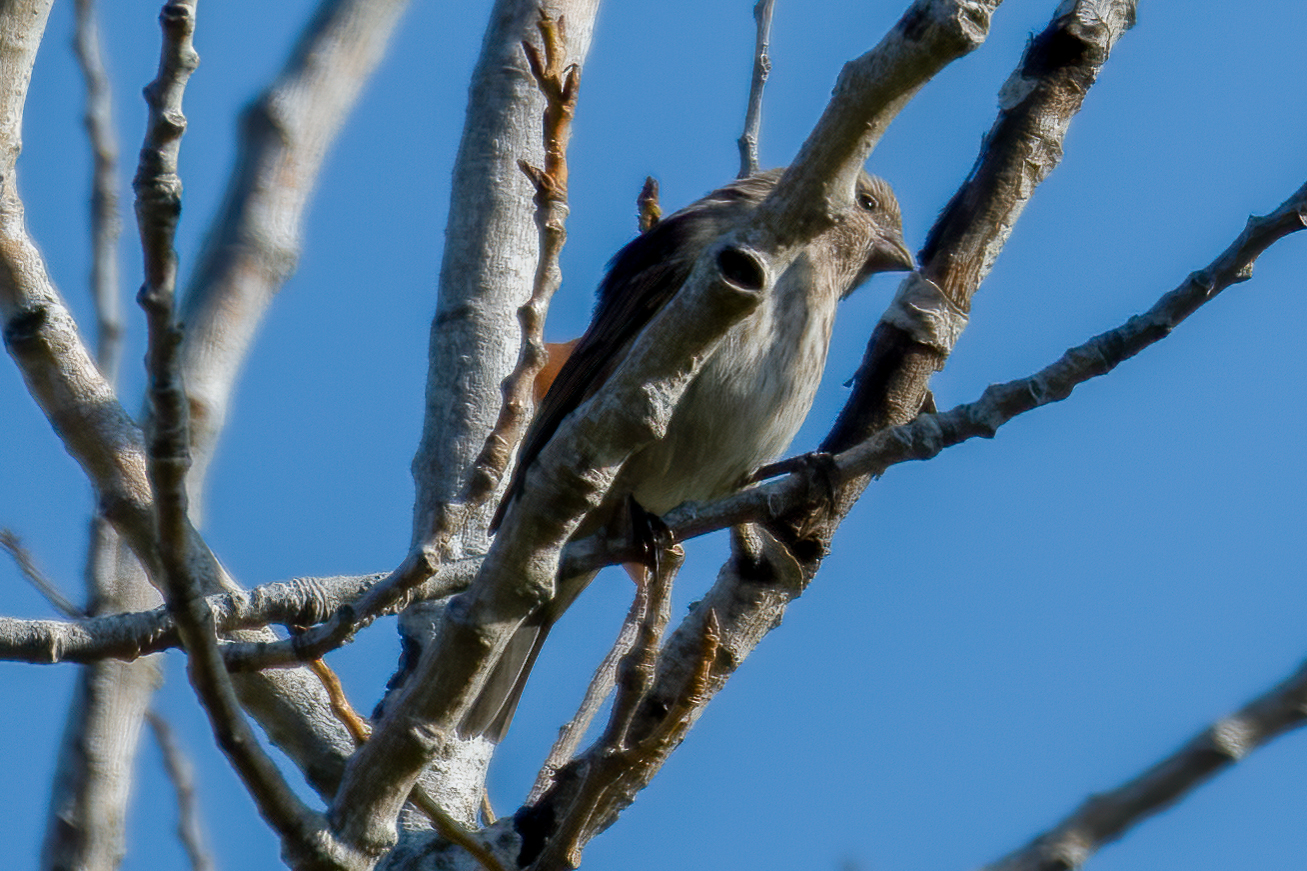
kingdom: Animalia
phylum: Chordata
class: Aves
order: Passeriformes
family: Fringillidae
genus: Haemorhous
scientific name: Haemorhous mexicanus
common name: House finch
